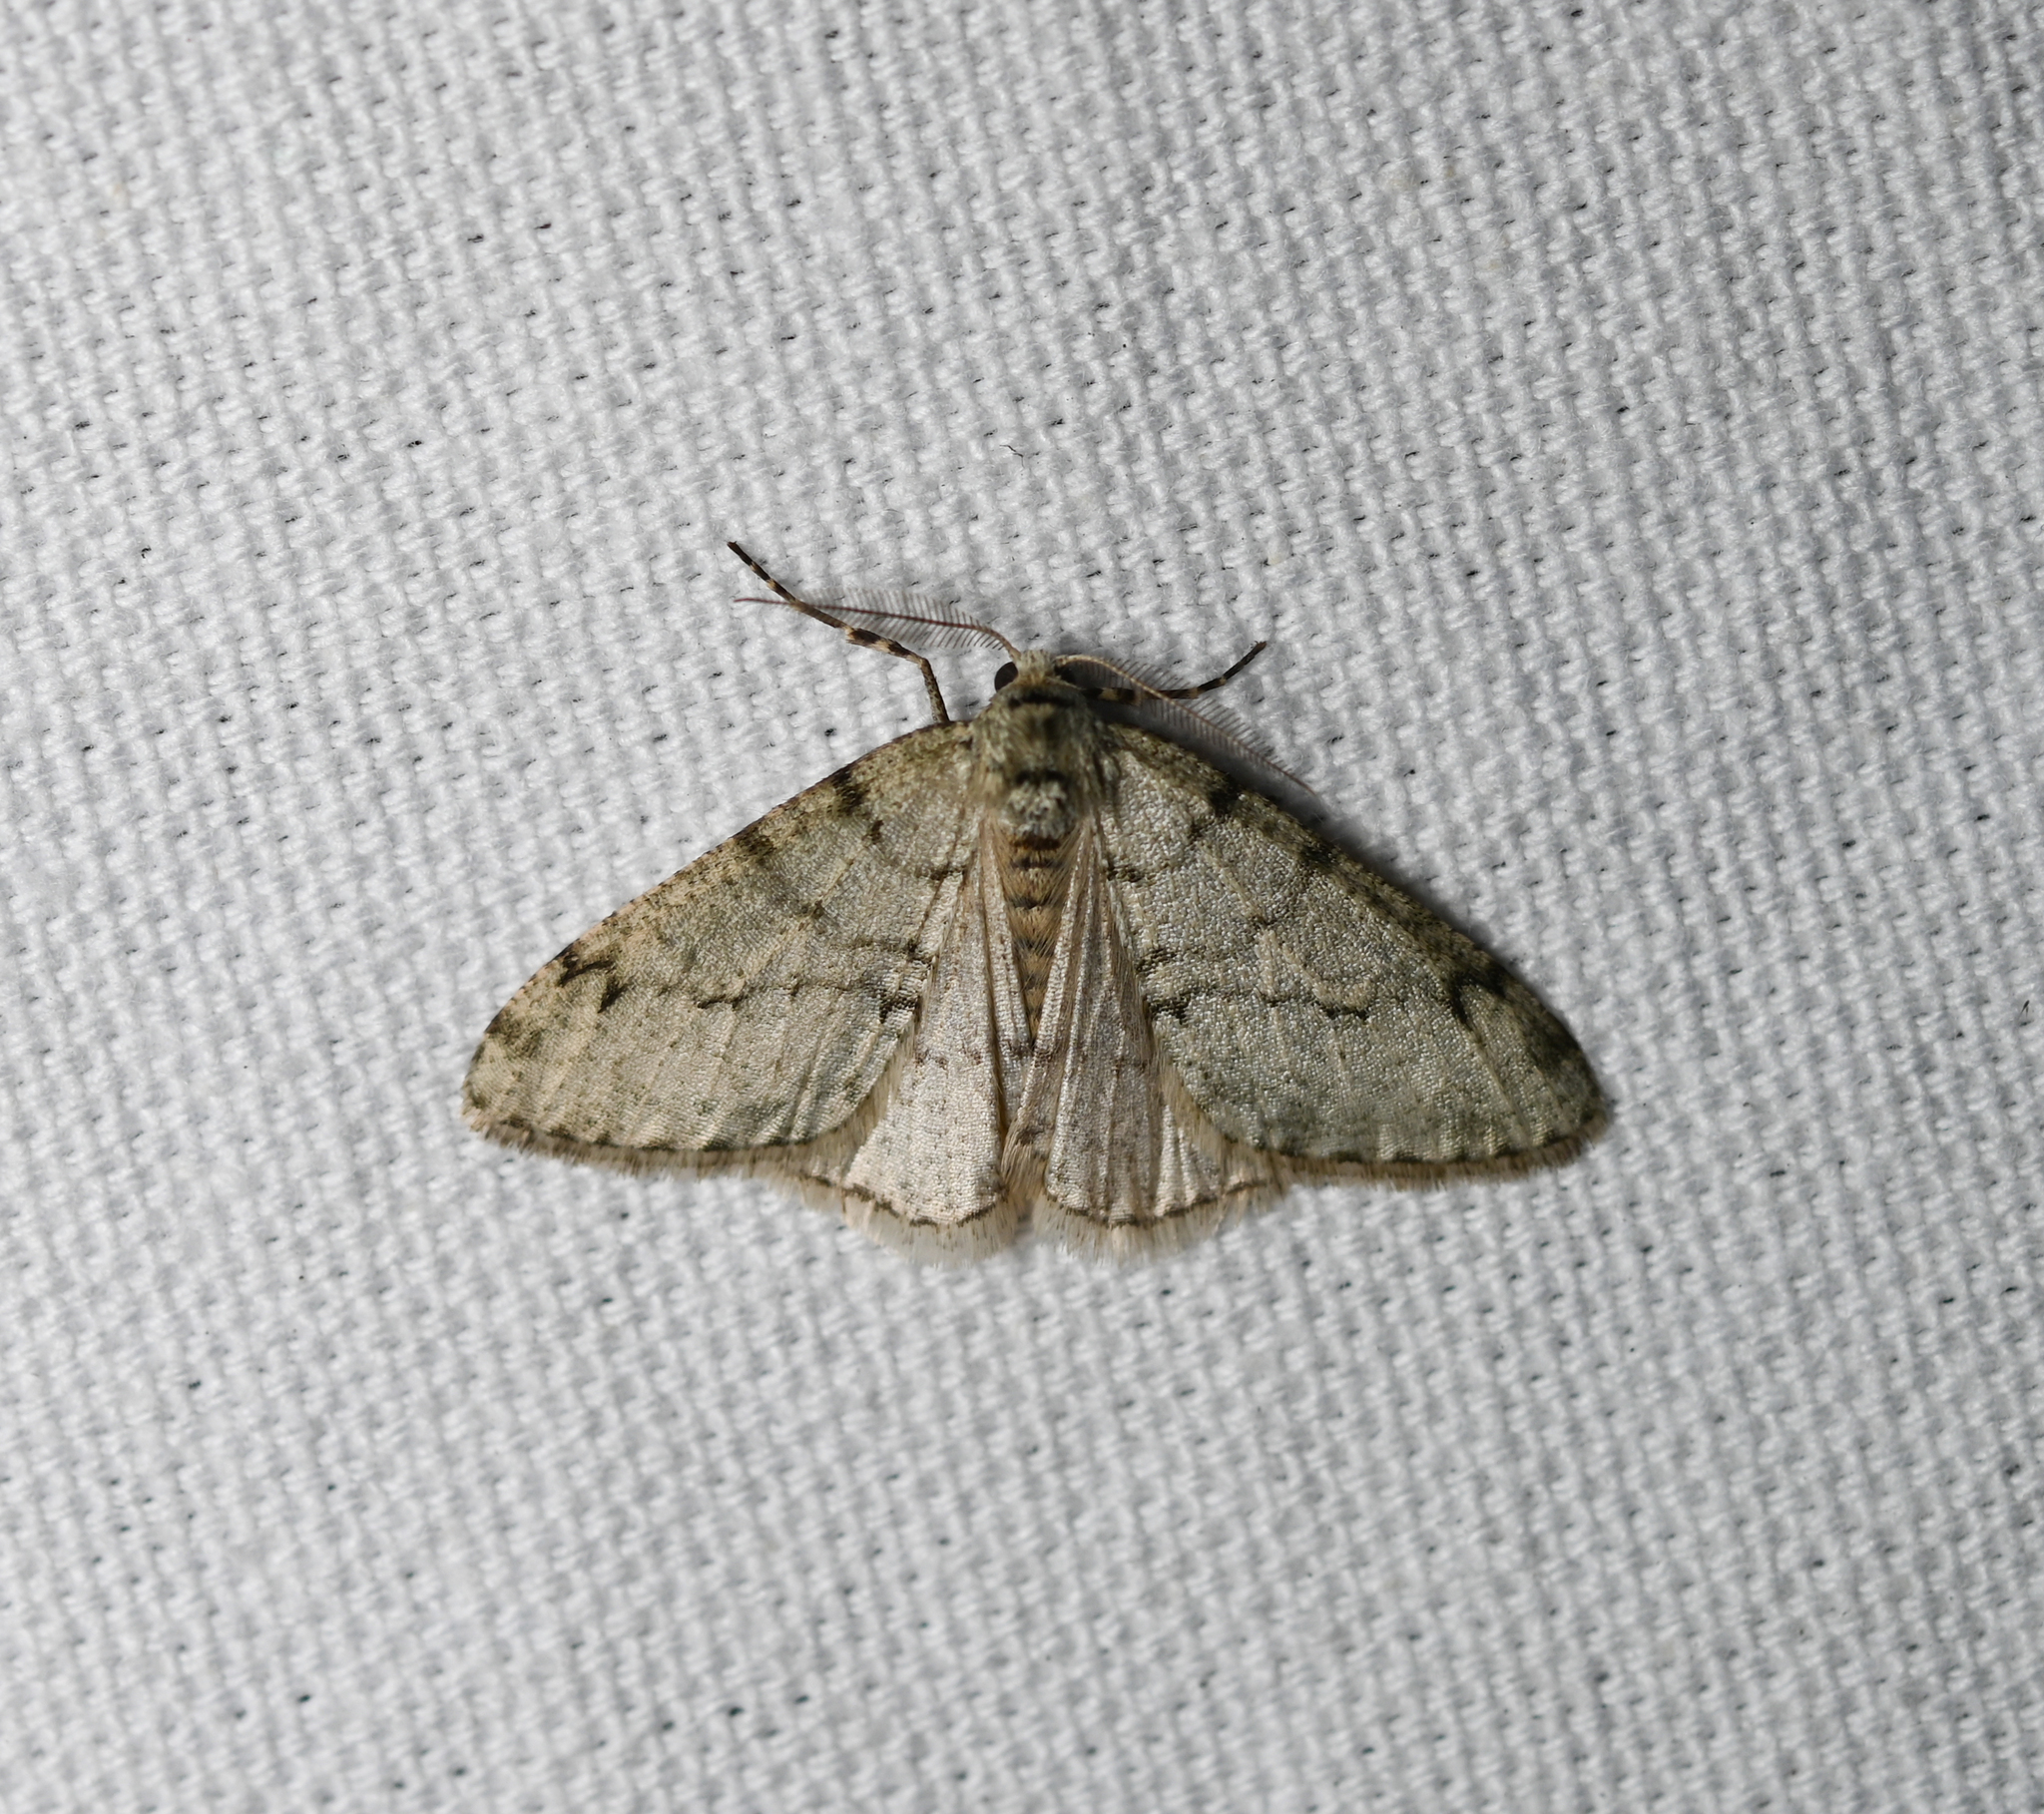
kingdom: Animalia
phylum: Arthropoda
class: Insecta
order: Lepidoptera
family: Geometridae
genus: Phigalia
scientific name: Phigalia strigataria
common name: Small phigalia
